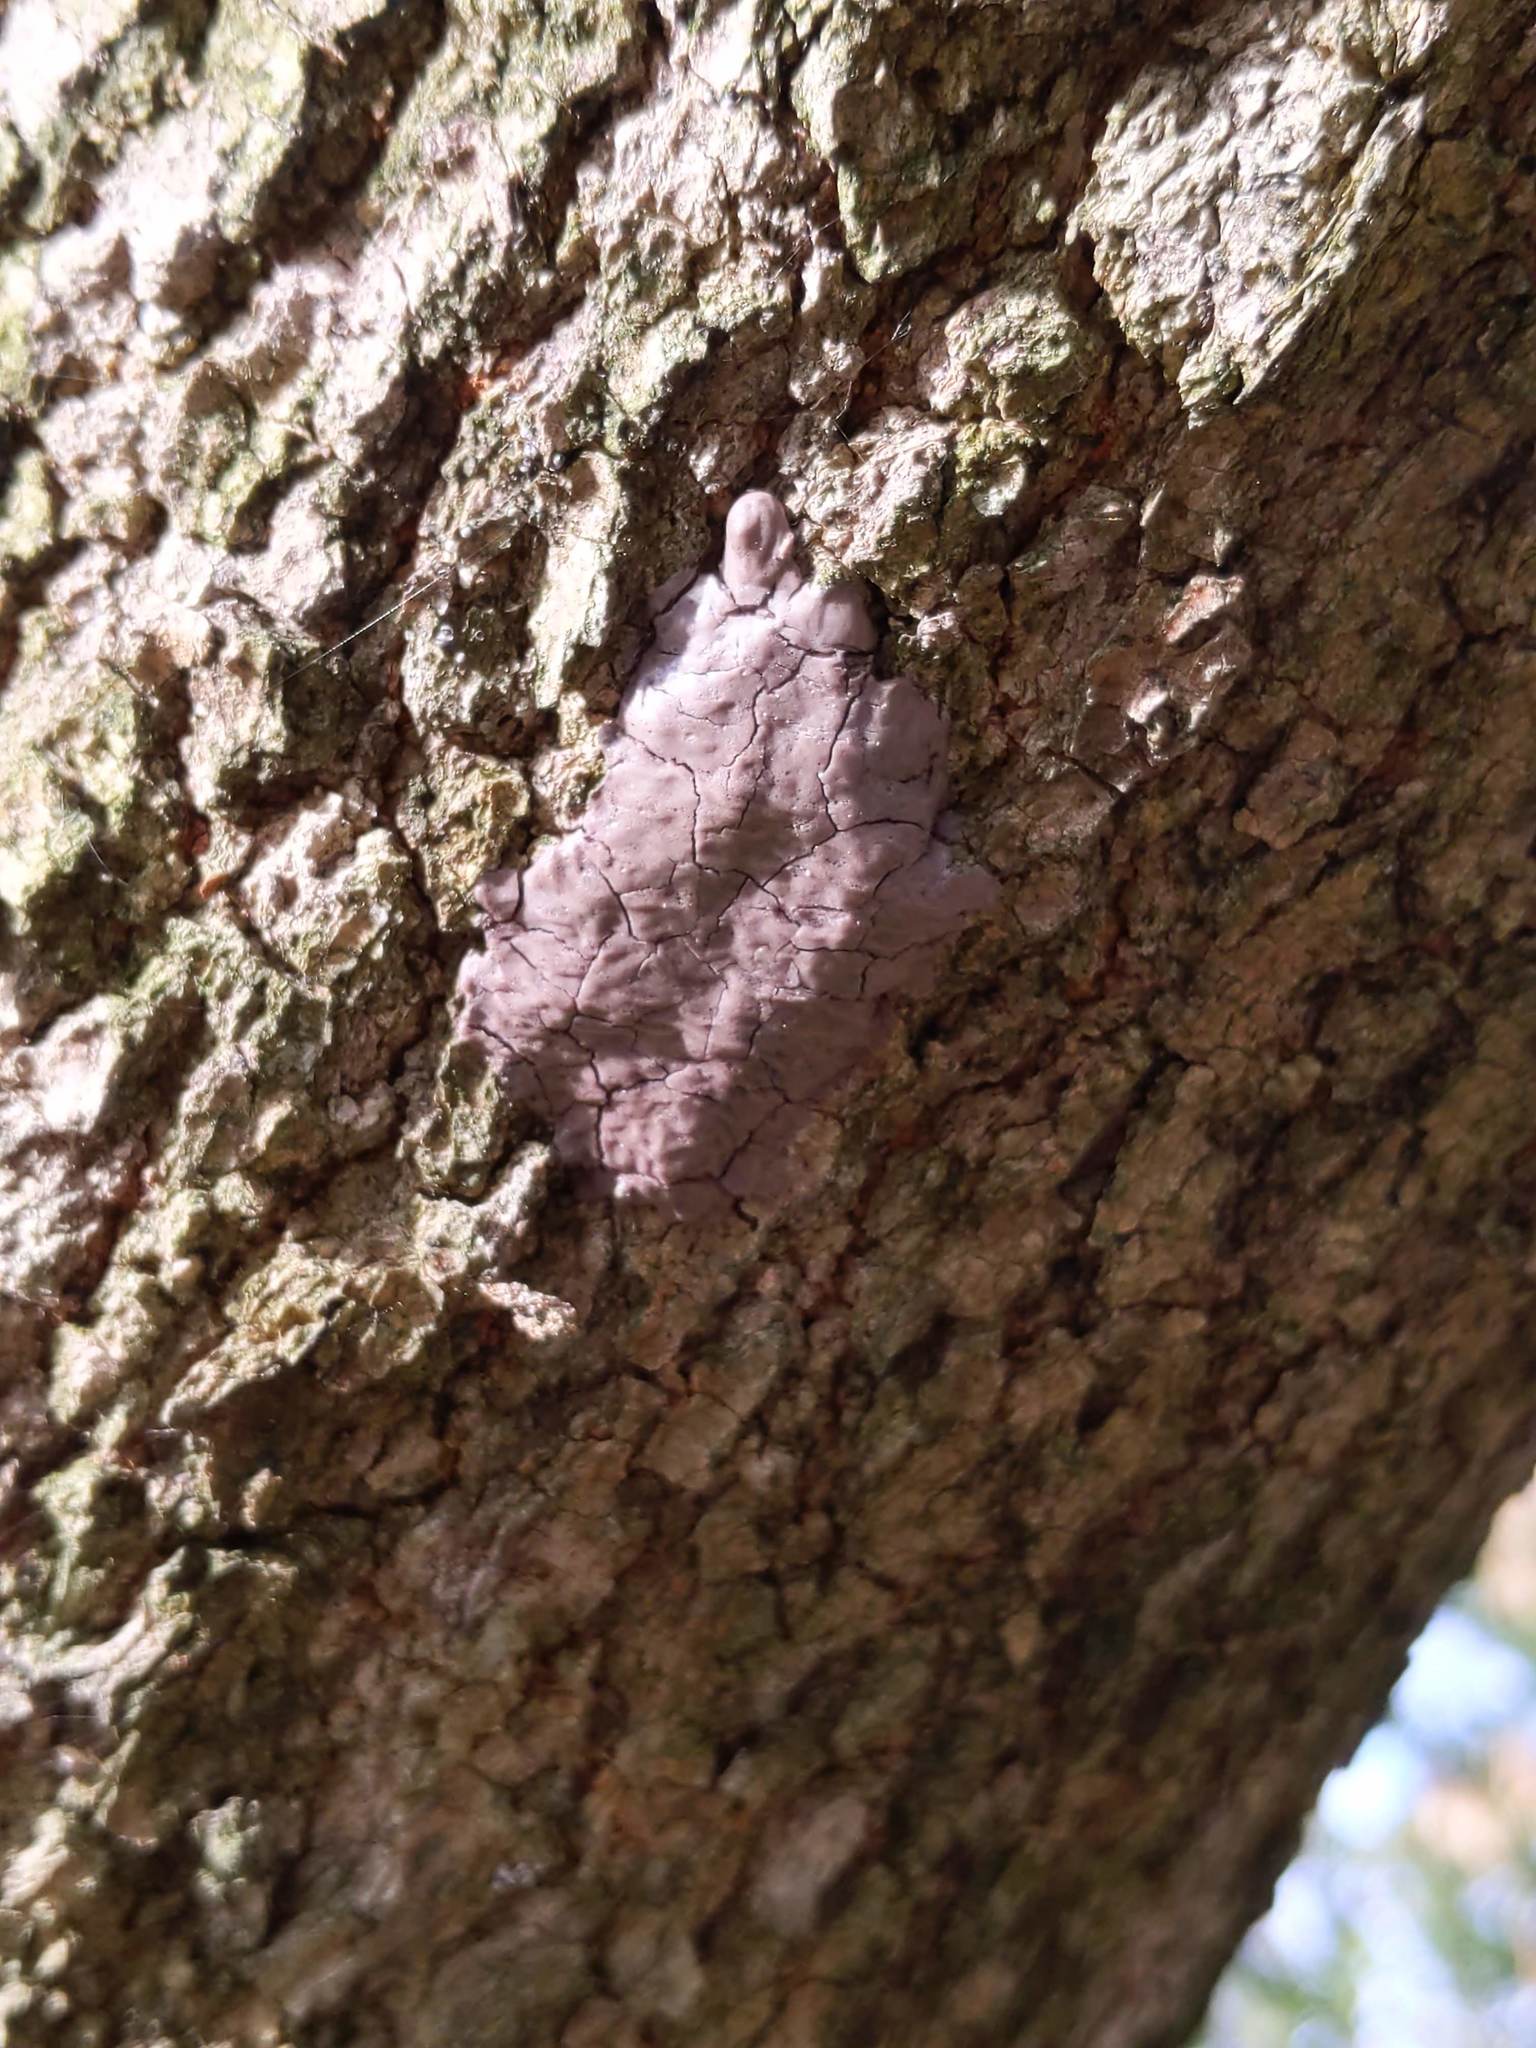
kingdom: Animalia
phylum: Arthropoda
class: Insecta
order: Hemiptera
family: Fulgoridae
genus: Lycorma
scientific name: Lycorma delicatula
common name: Spotted lanternfly
